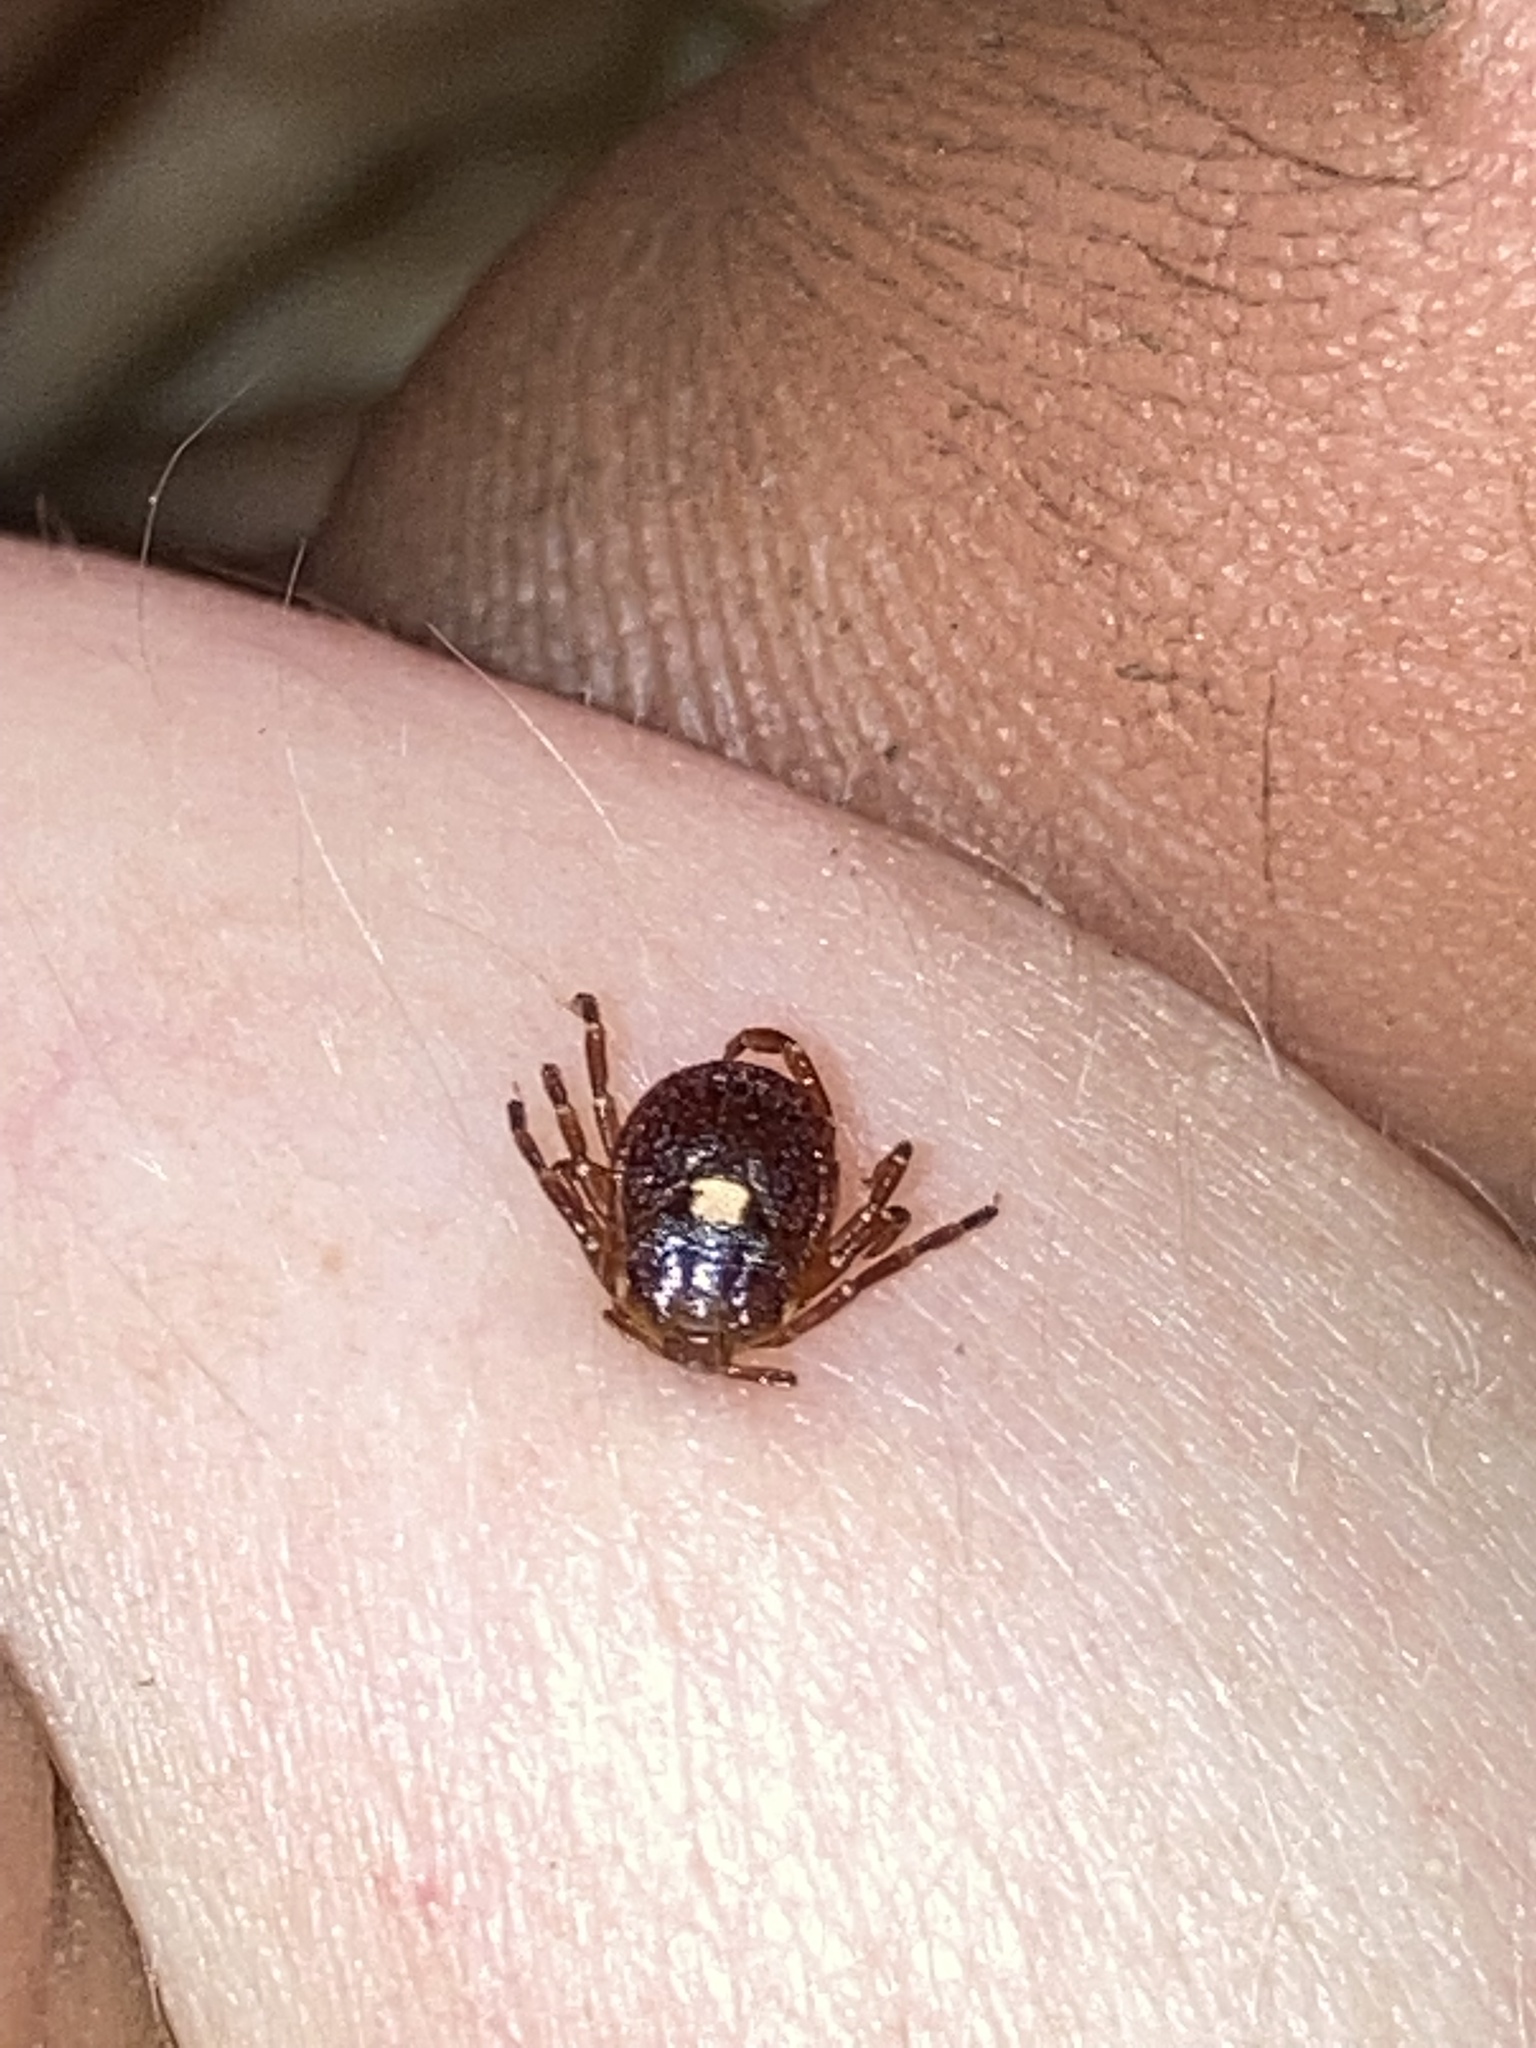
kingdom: Animalia
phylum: Arthropoda
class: Arachnida
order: Ixodida
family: Ixodidae
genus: Amblyomma
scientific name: Amblyomma americanum
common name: Lone star tick
